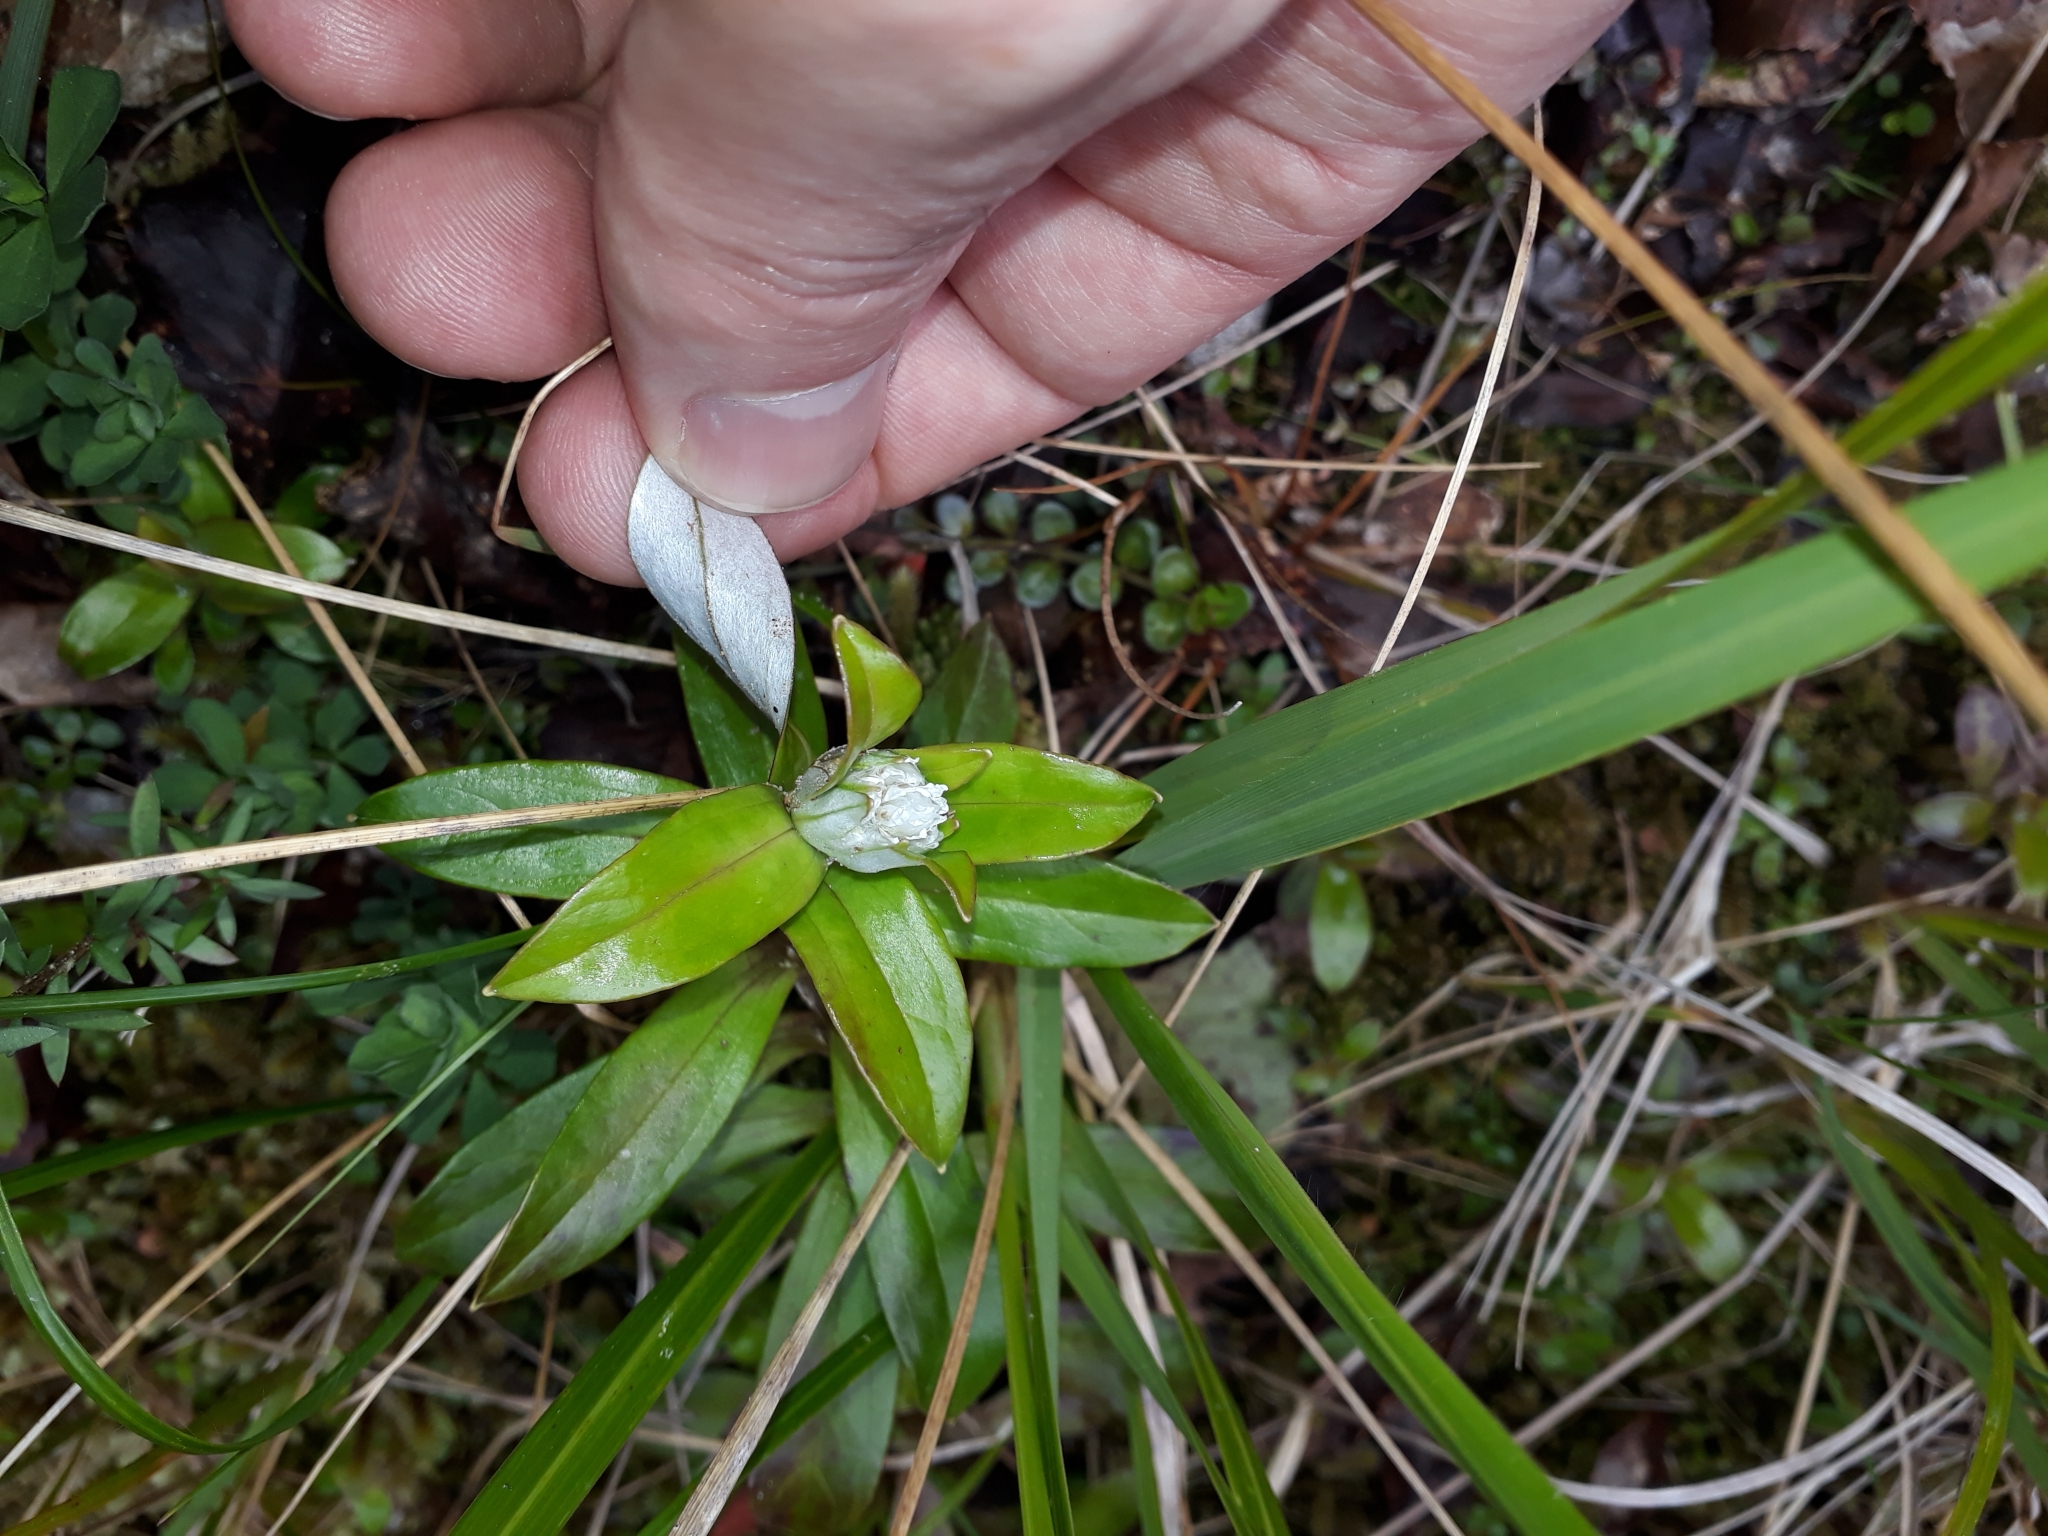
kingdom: Plantae
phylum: Tracheophyta
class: Magnoliopsida
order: Asterales
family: Asteraceae
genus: Anaphalioides
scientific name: Anaphalioides trinervis
